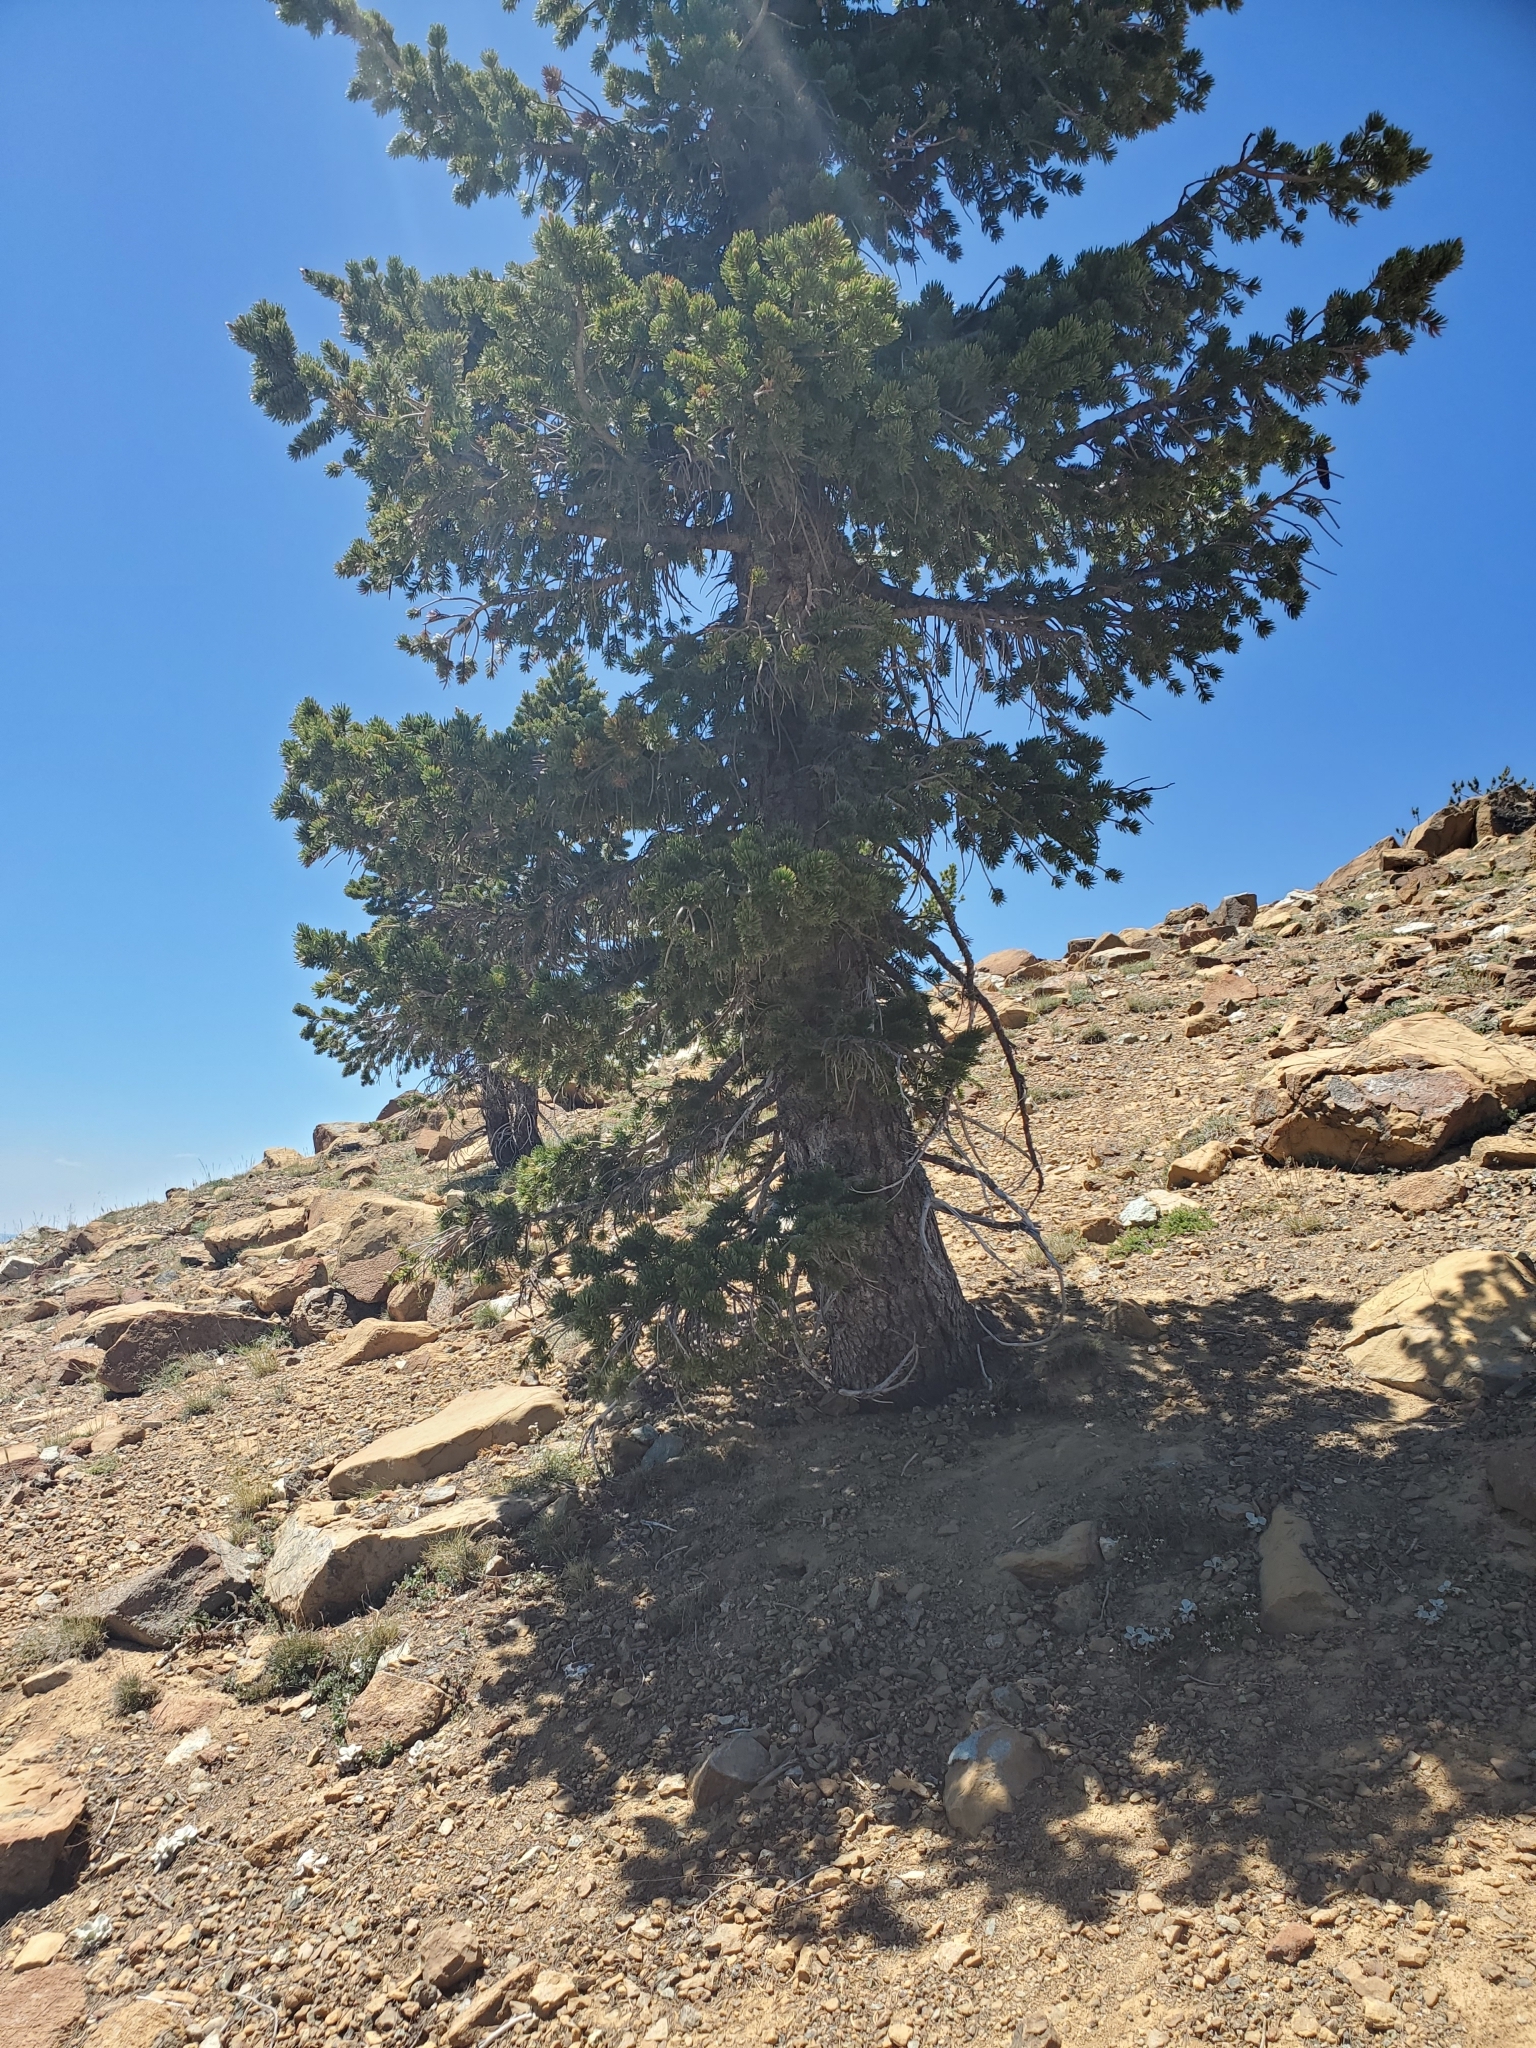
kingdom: Plantae
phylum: Tracheophyta
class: Pinopsida
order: Pinales
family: Pinaceae
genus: Pinus
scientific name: Pinus balfouriana
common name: Foxtail pine
